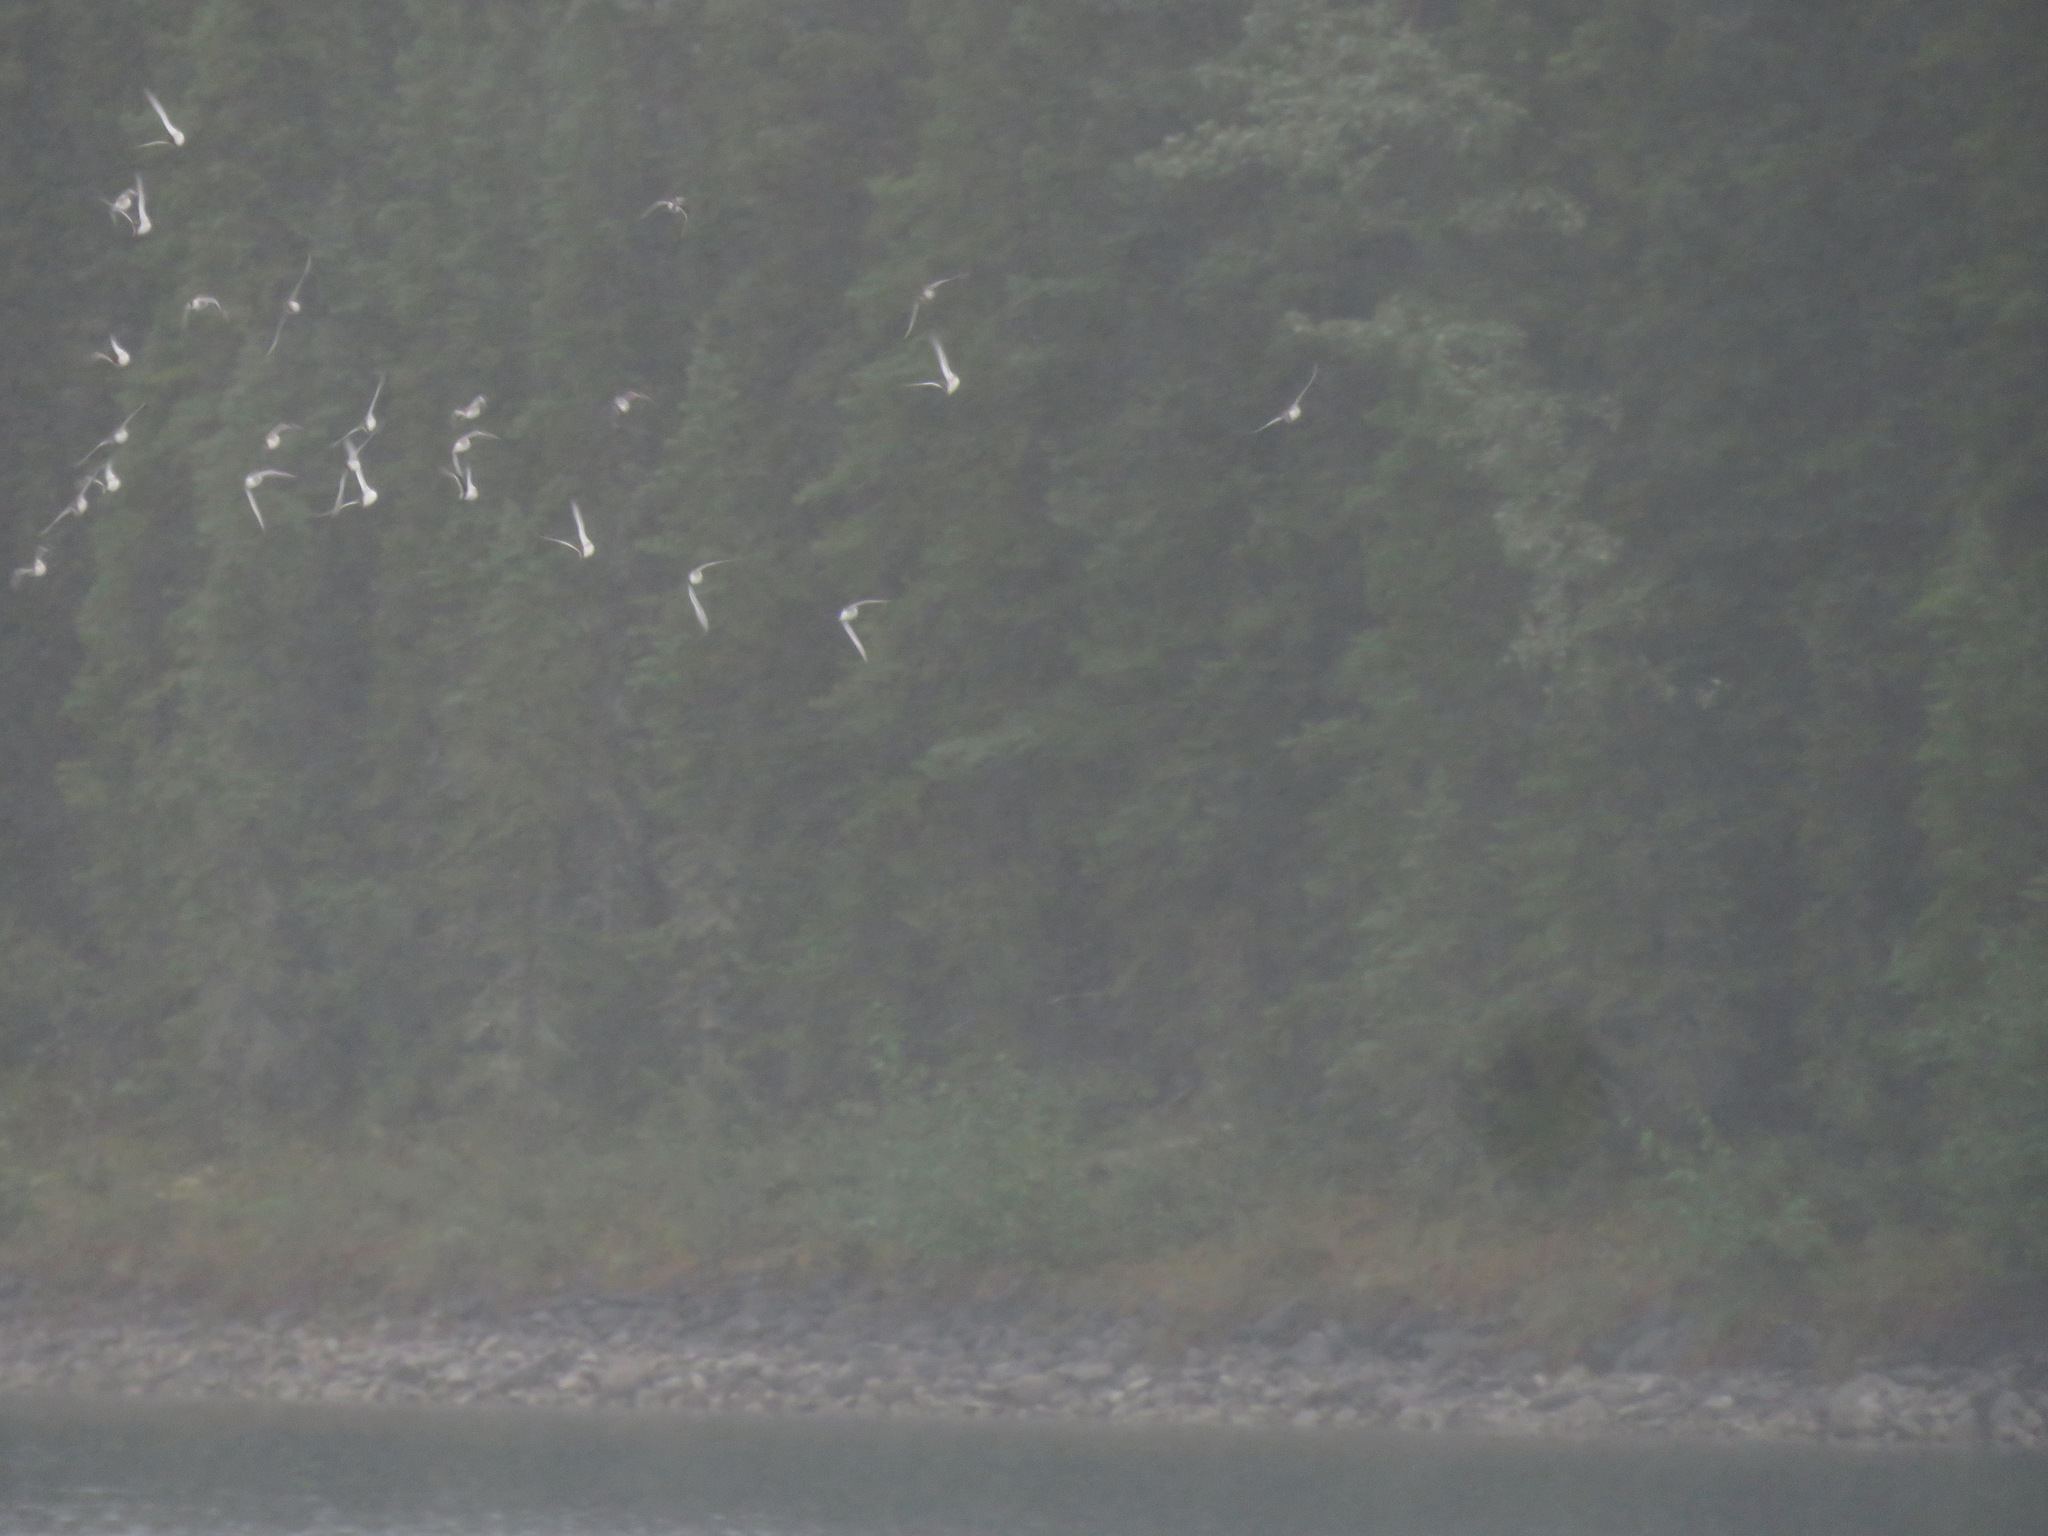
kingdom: Animalia
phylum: Chordata
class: Aves
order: Charadriiformes
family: Scolopacidae
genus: Phalaropus
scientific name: Phalaropus lobatus
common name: Red-necked phalarope
